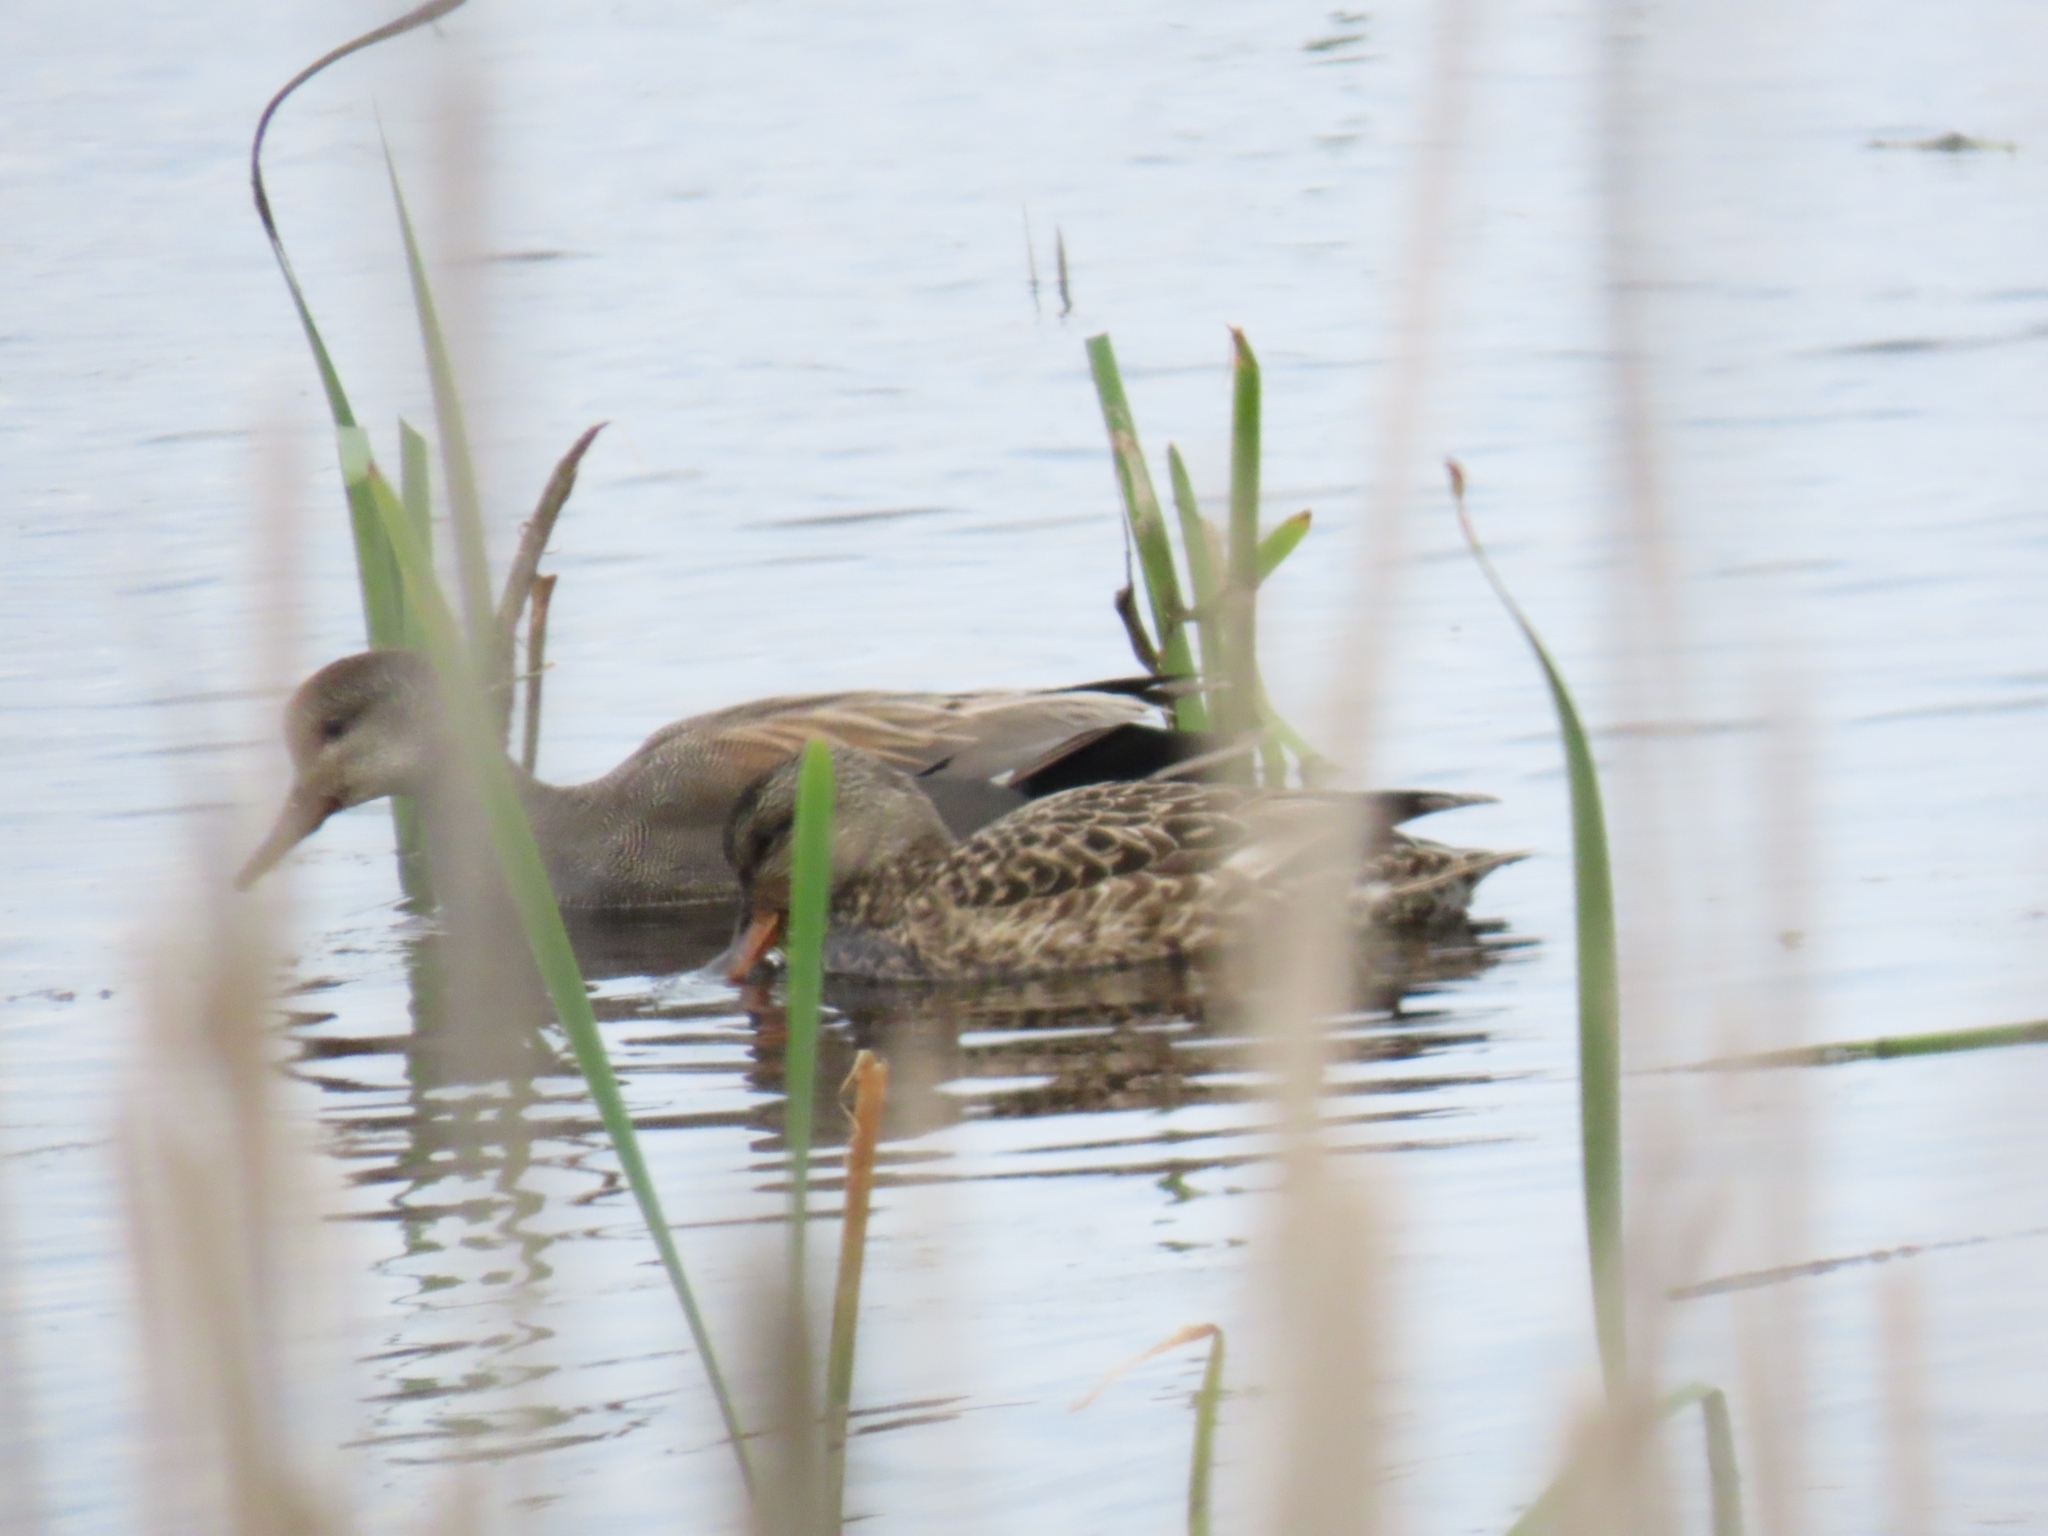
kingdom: Animalia
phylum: Chordata
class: Aves
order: Anseriformes
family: Anatidae
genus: Mareca
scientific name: Mareca strepera
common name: Gadwall
